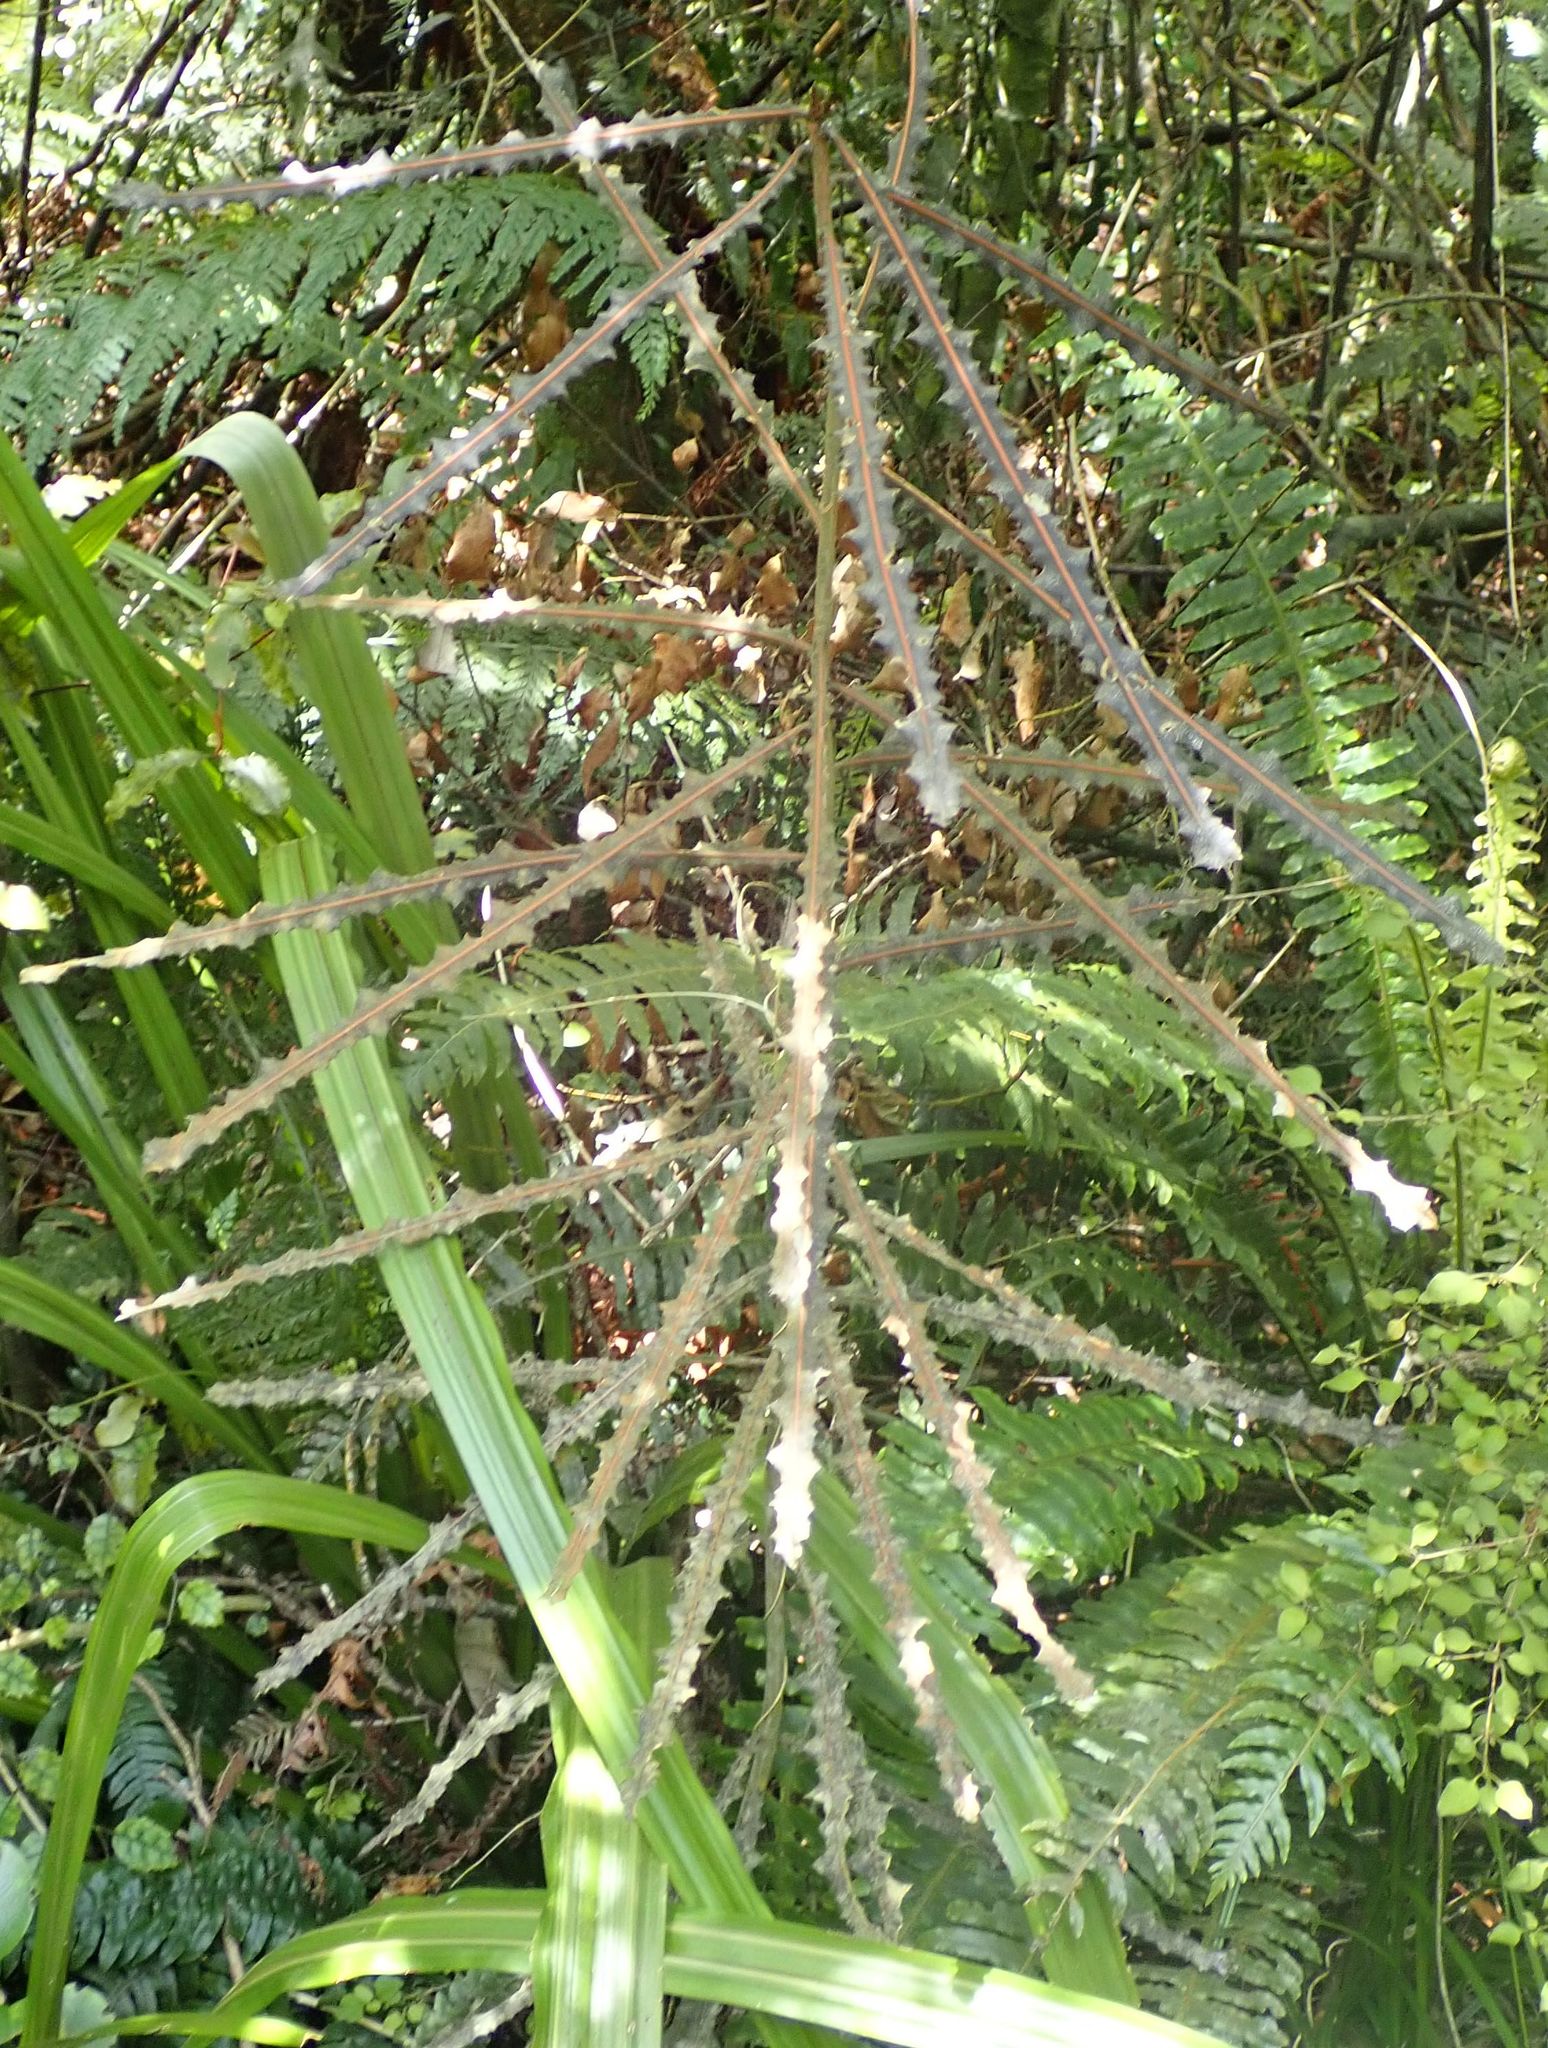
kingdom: Plantae
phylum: Tracheophyta
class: Magnoliopsida
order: Apiales
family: Araliaceae
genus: Pseudopanax
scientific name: Pseudopanax ferox
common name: Fierce lancewood
